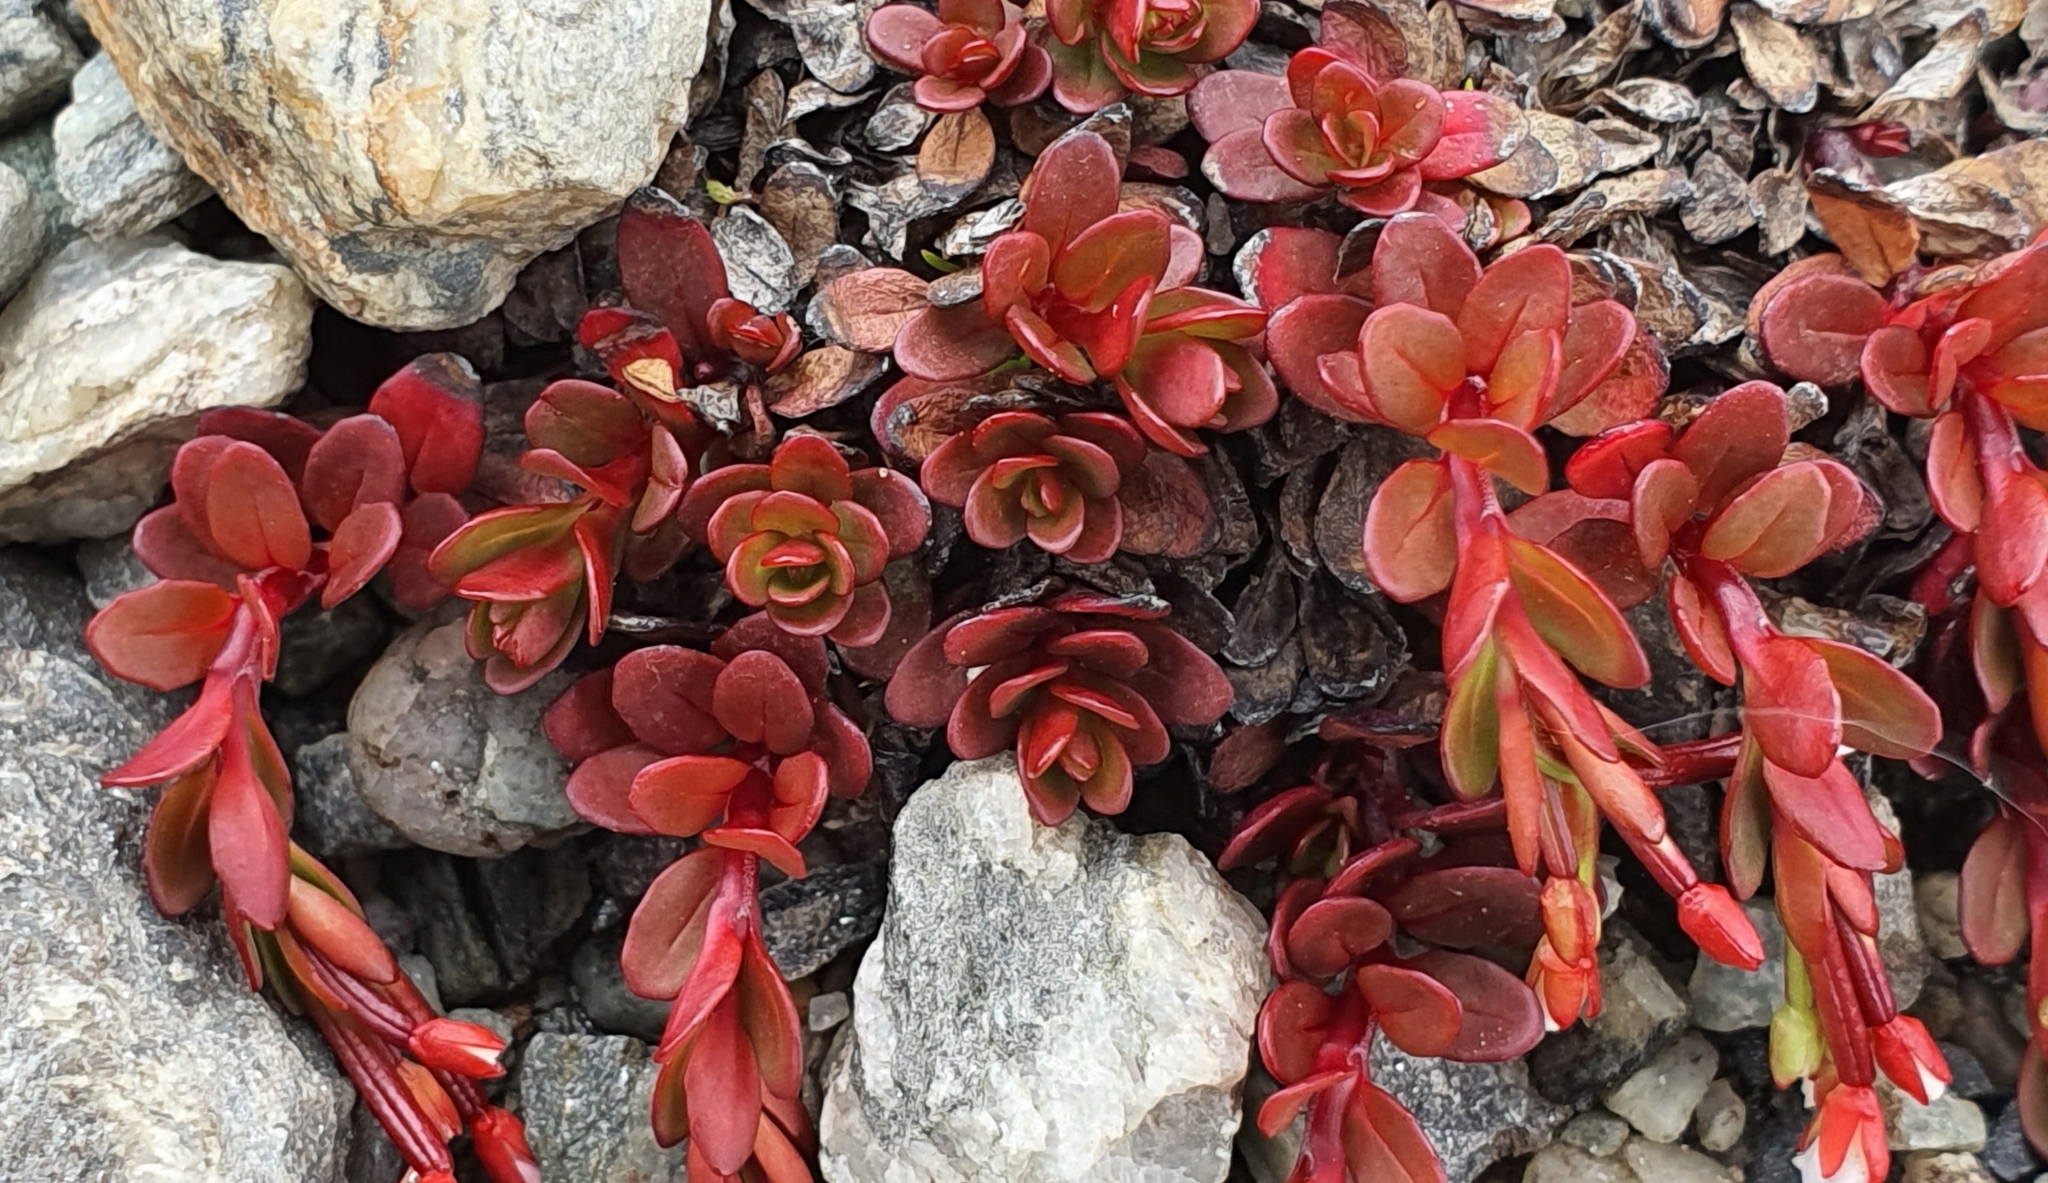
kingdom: Plantae
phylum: Tracheophyta
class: Magnoliopsida
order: Myrtales
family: Onagraceae
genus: Epilobium
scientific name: Epilobium tasmanicum
